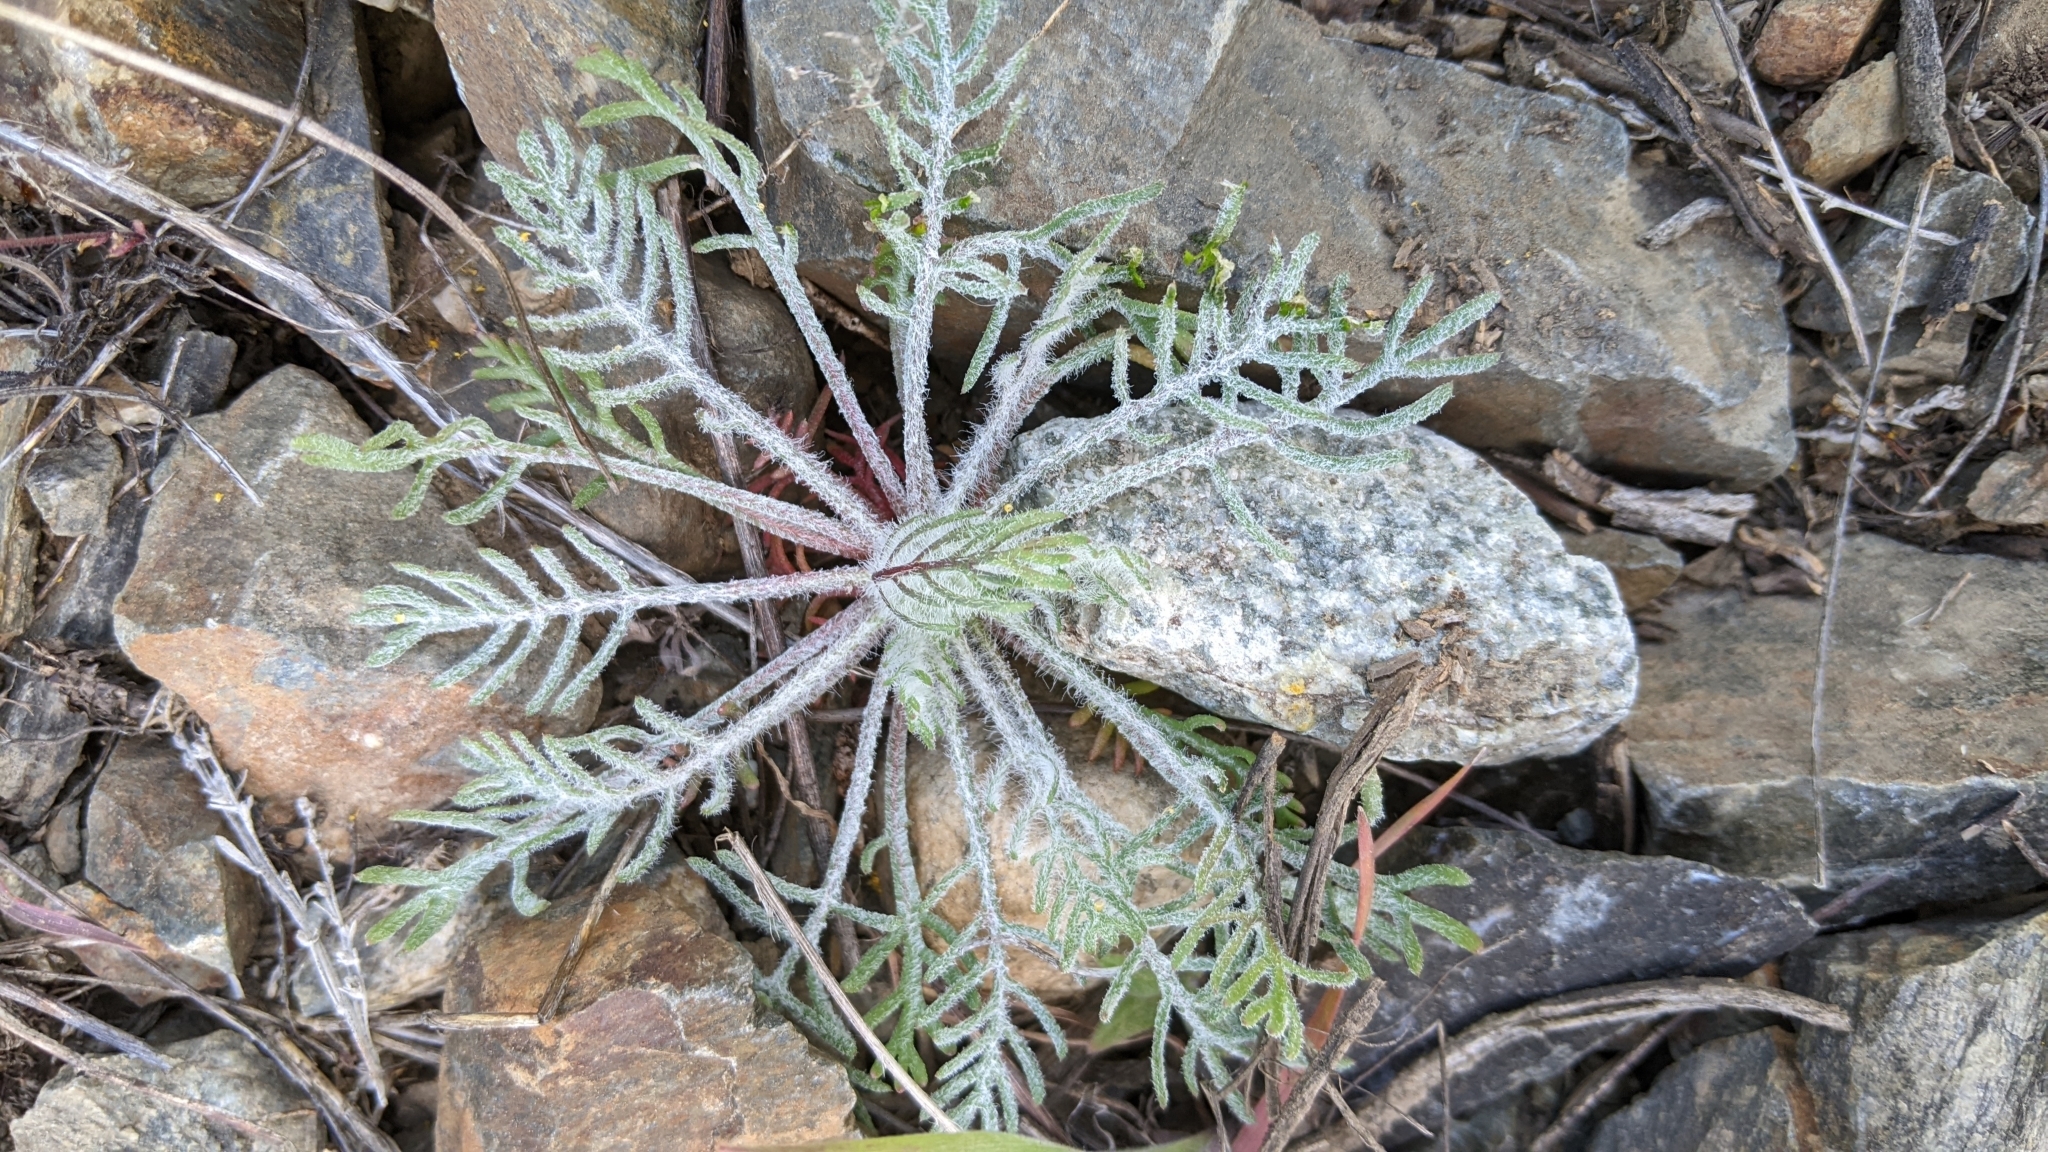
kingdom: Plantae
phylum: Tracheophyta
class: Magnoliopsida
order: Asterales
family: Asteraceae
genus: Chaenactis
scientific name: Chaenactis douglasii
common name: Hoary pincushion
